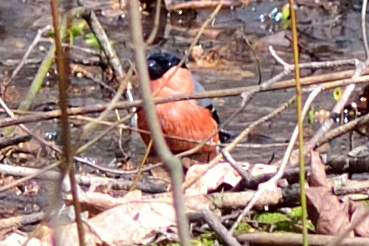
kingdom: Animalia
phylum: Chordata
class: Aves
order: Passeriformes
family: Fringillidae
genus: Pyrrhula
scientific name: Pyrrhula pyrrhula
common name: Eurasian bullfinch
